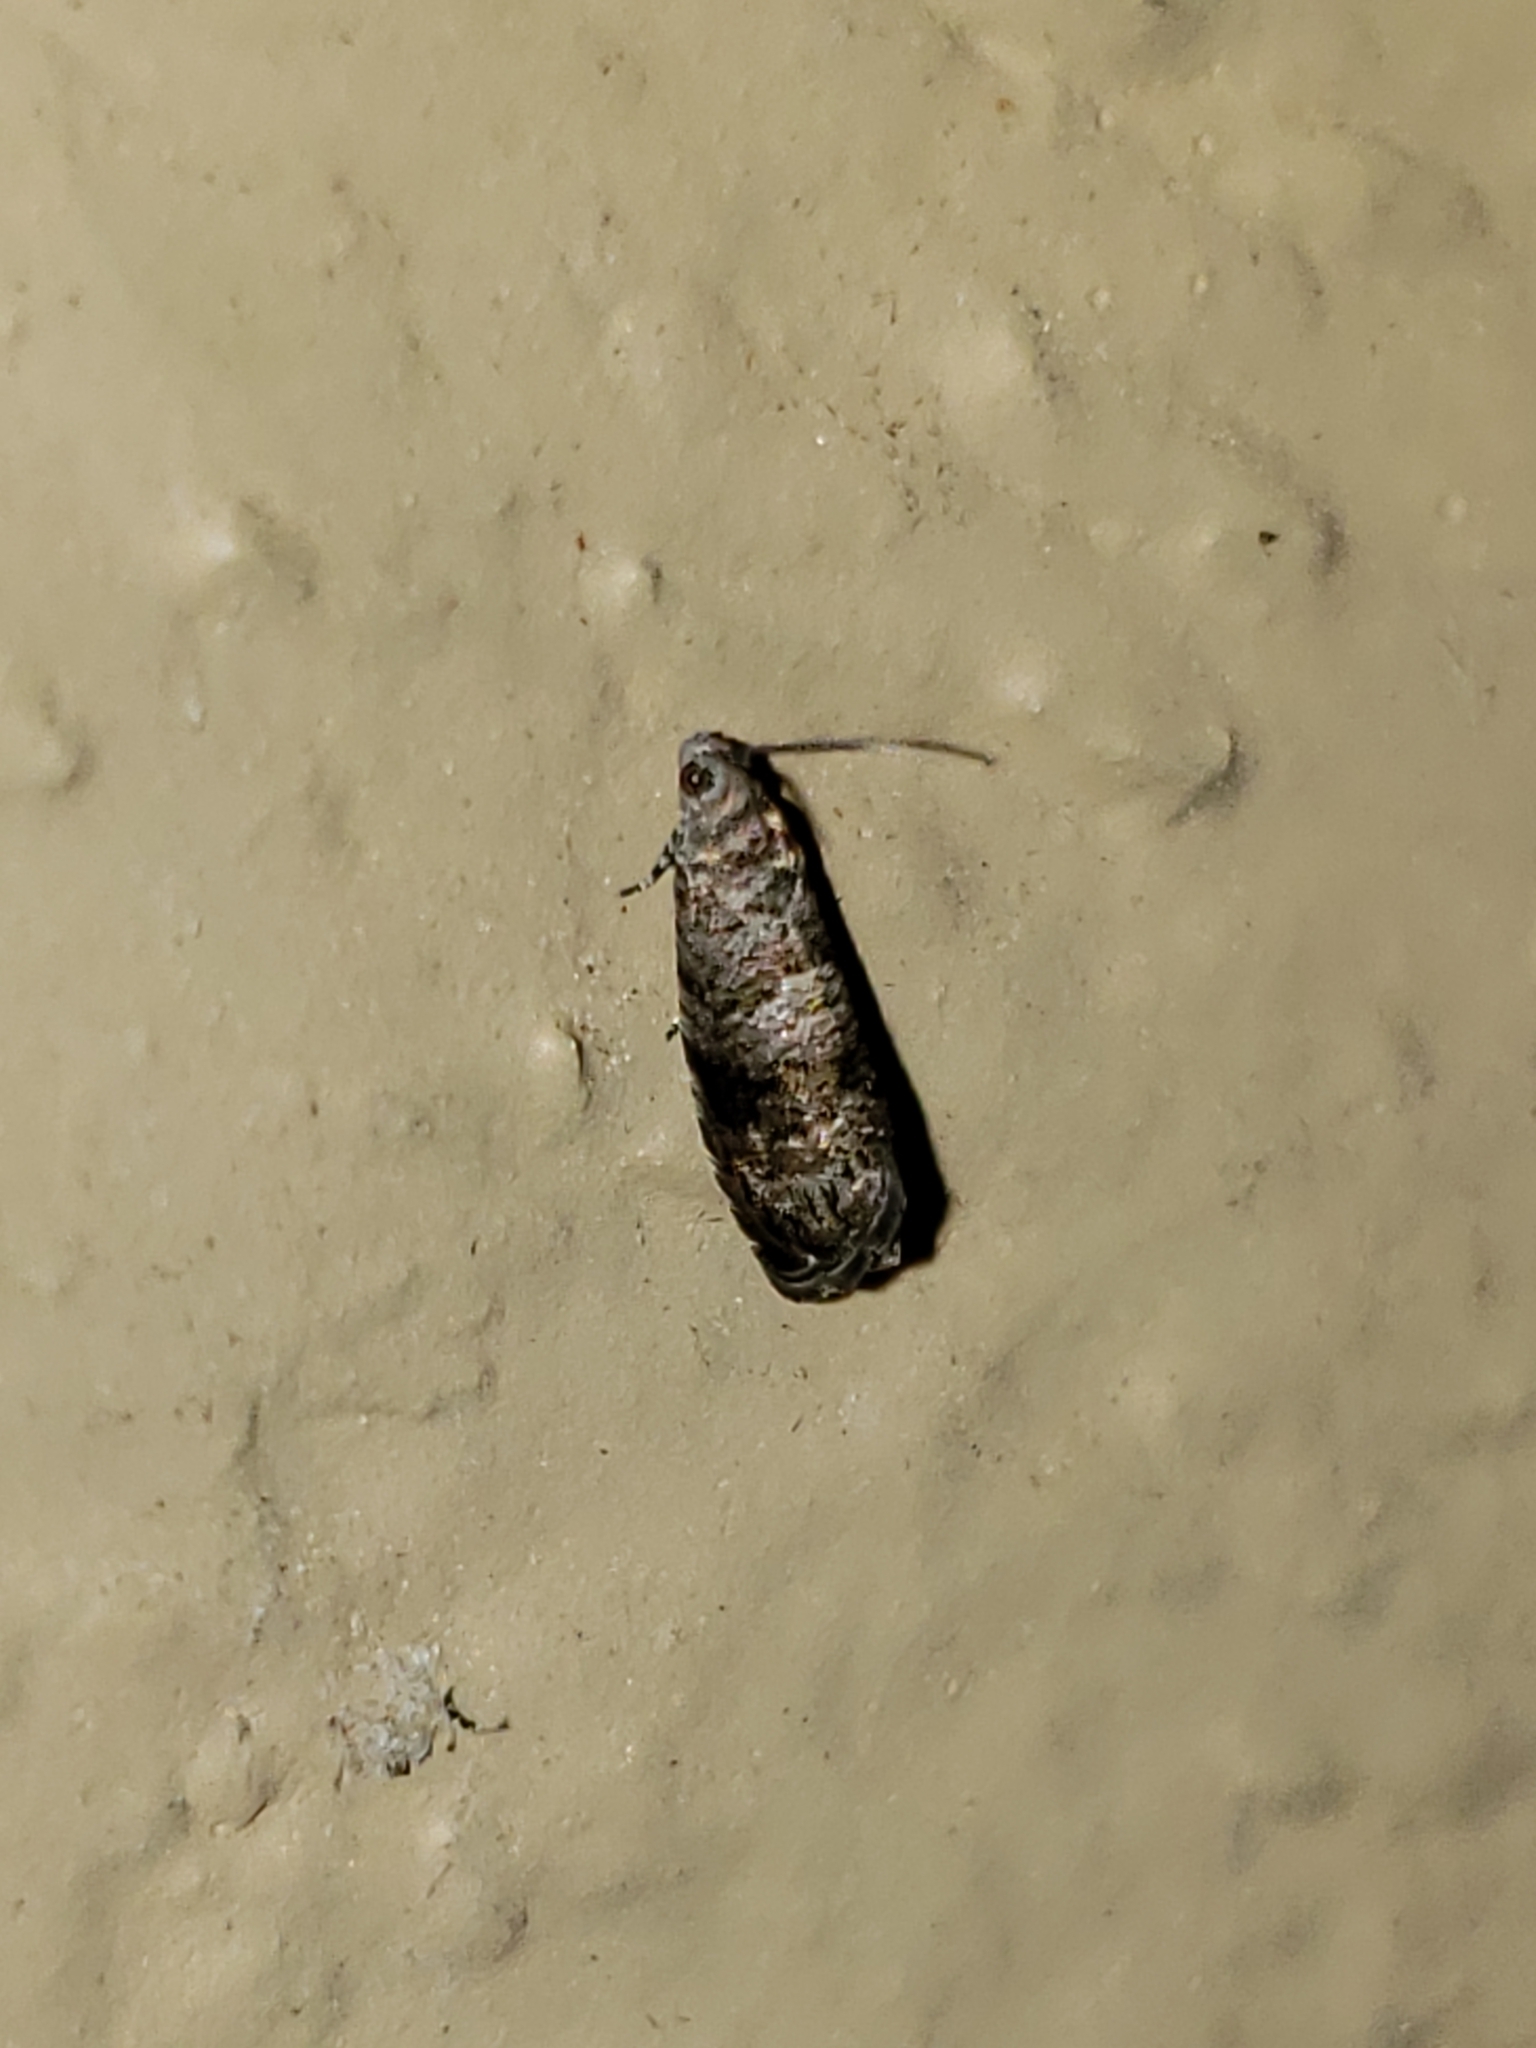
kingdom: Animalia
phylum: Arthropoda
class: Insecta
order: Lepidoptera
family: Noctuidae
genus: Aspila
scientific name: Aspila
